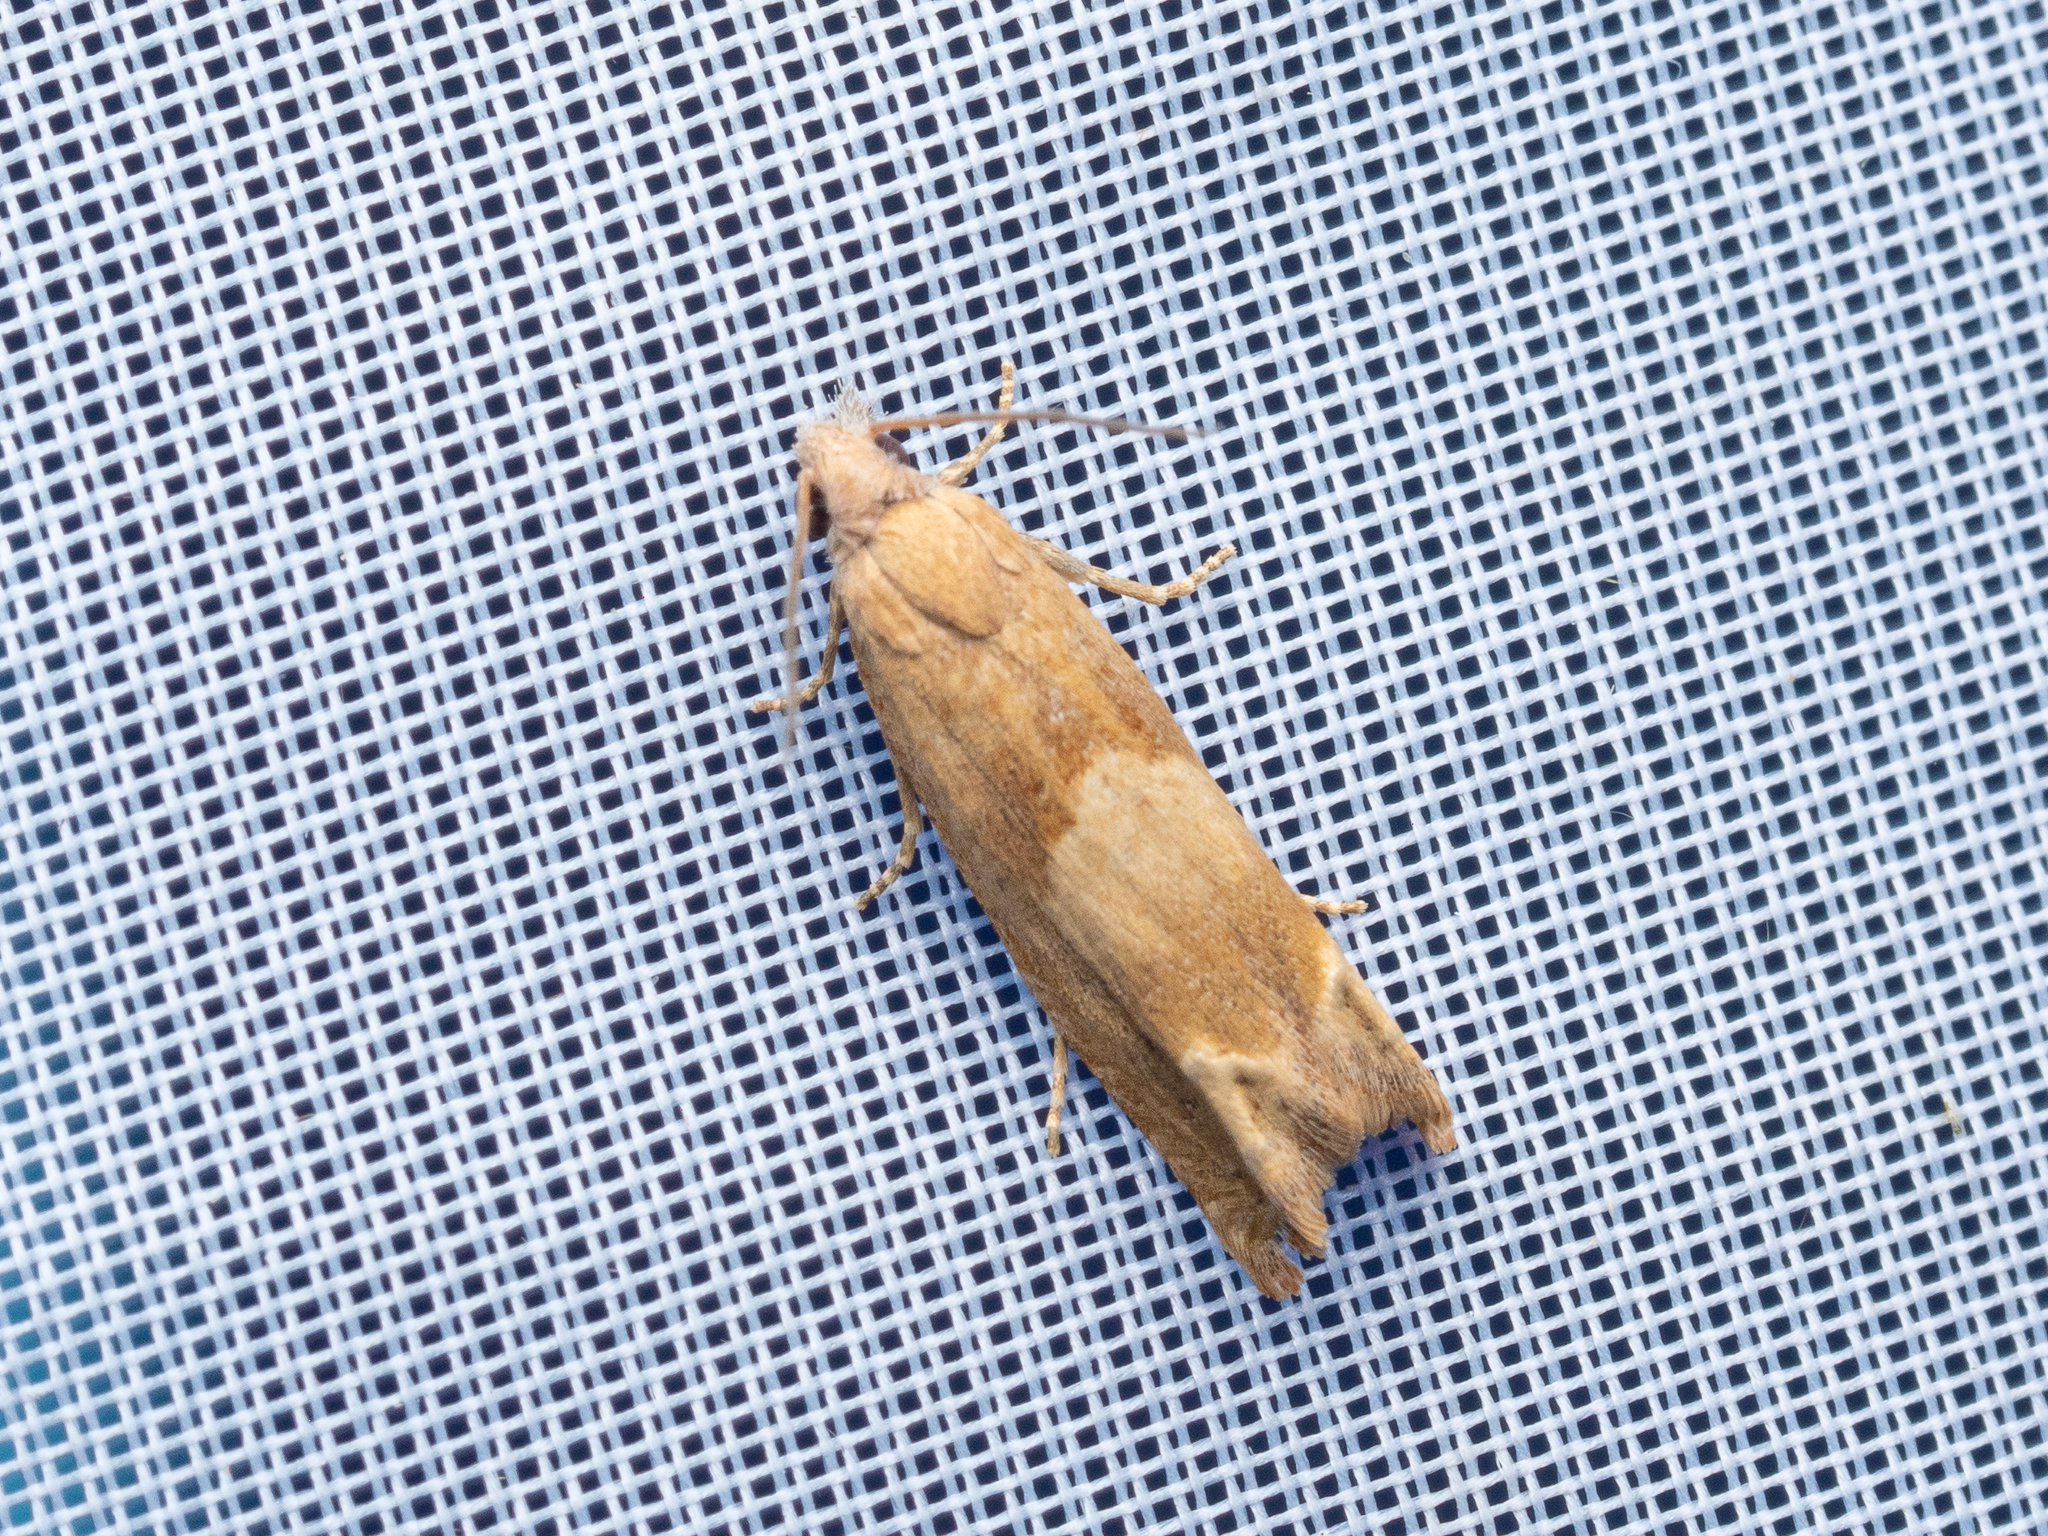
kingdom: Animalia
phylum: Arthropoda
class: Insecta
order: Lepidoptera
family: Tortricidae
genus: Eucosma
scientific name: Eucosma conterminana
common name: Pale lettuce bell
